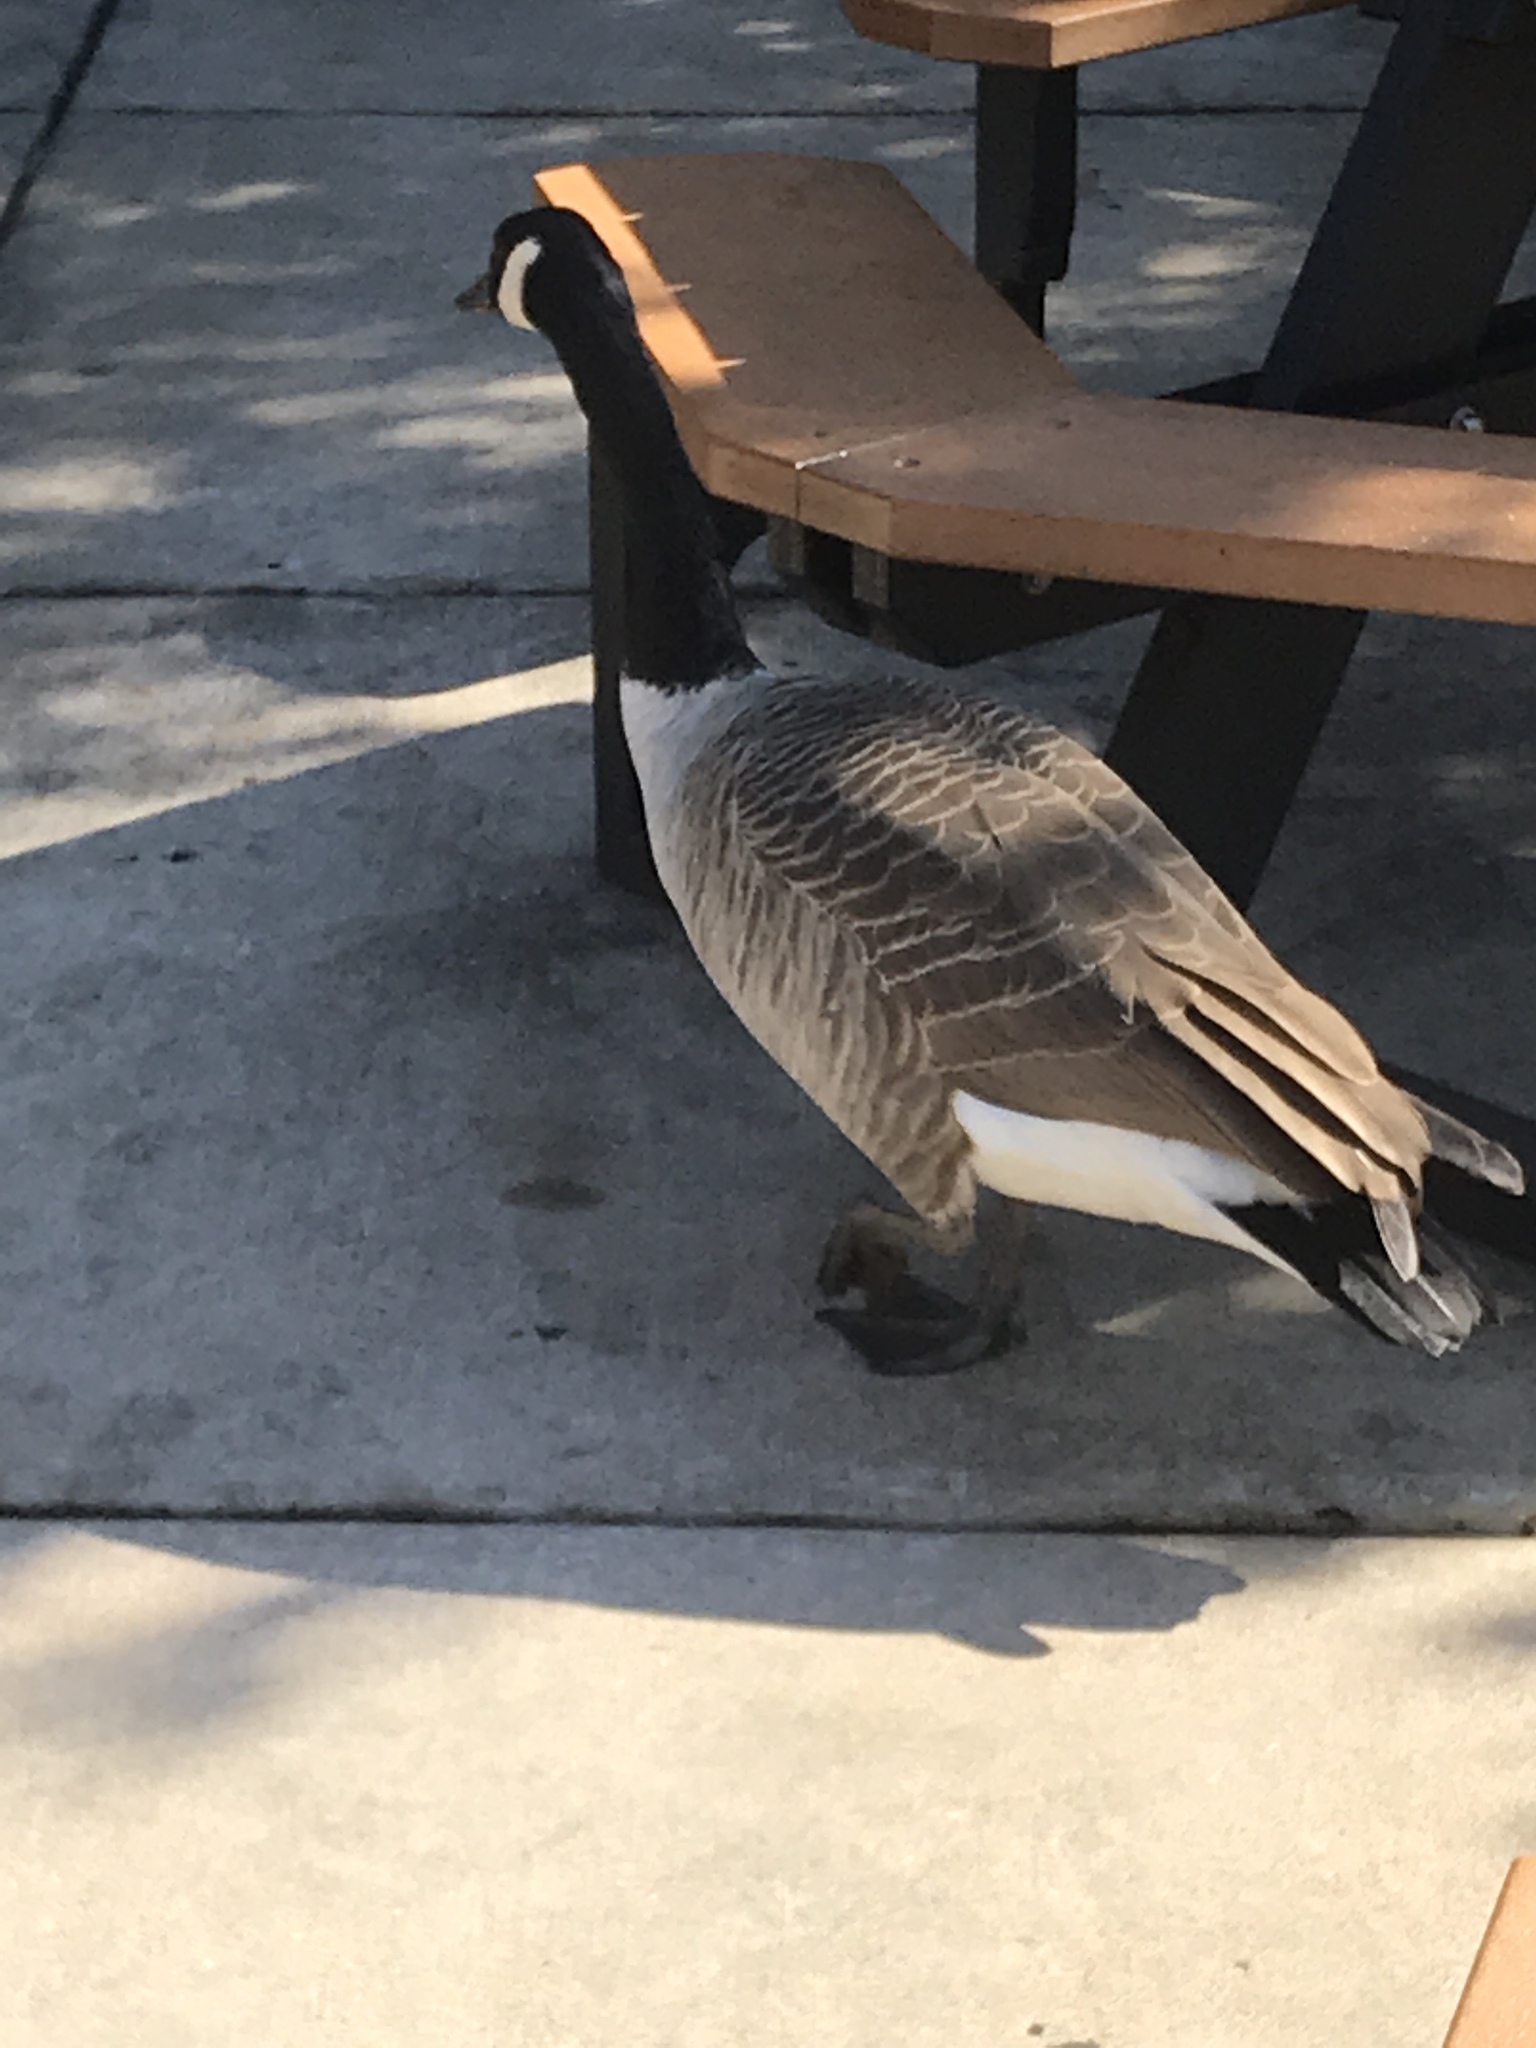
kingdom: Animalia
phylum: Chordata
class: Aves
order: Anseriformes
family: Anatidae
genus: Branta
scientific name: Branta canadensis
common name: Canada goose
